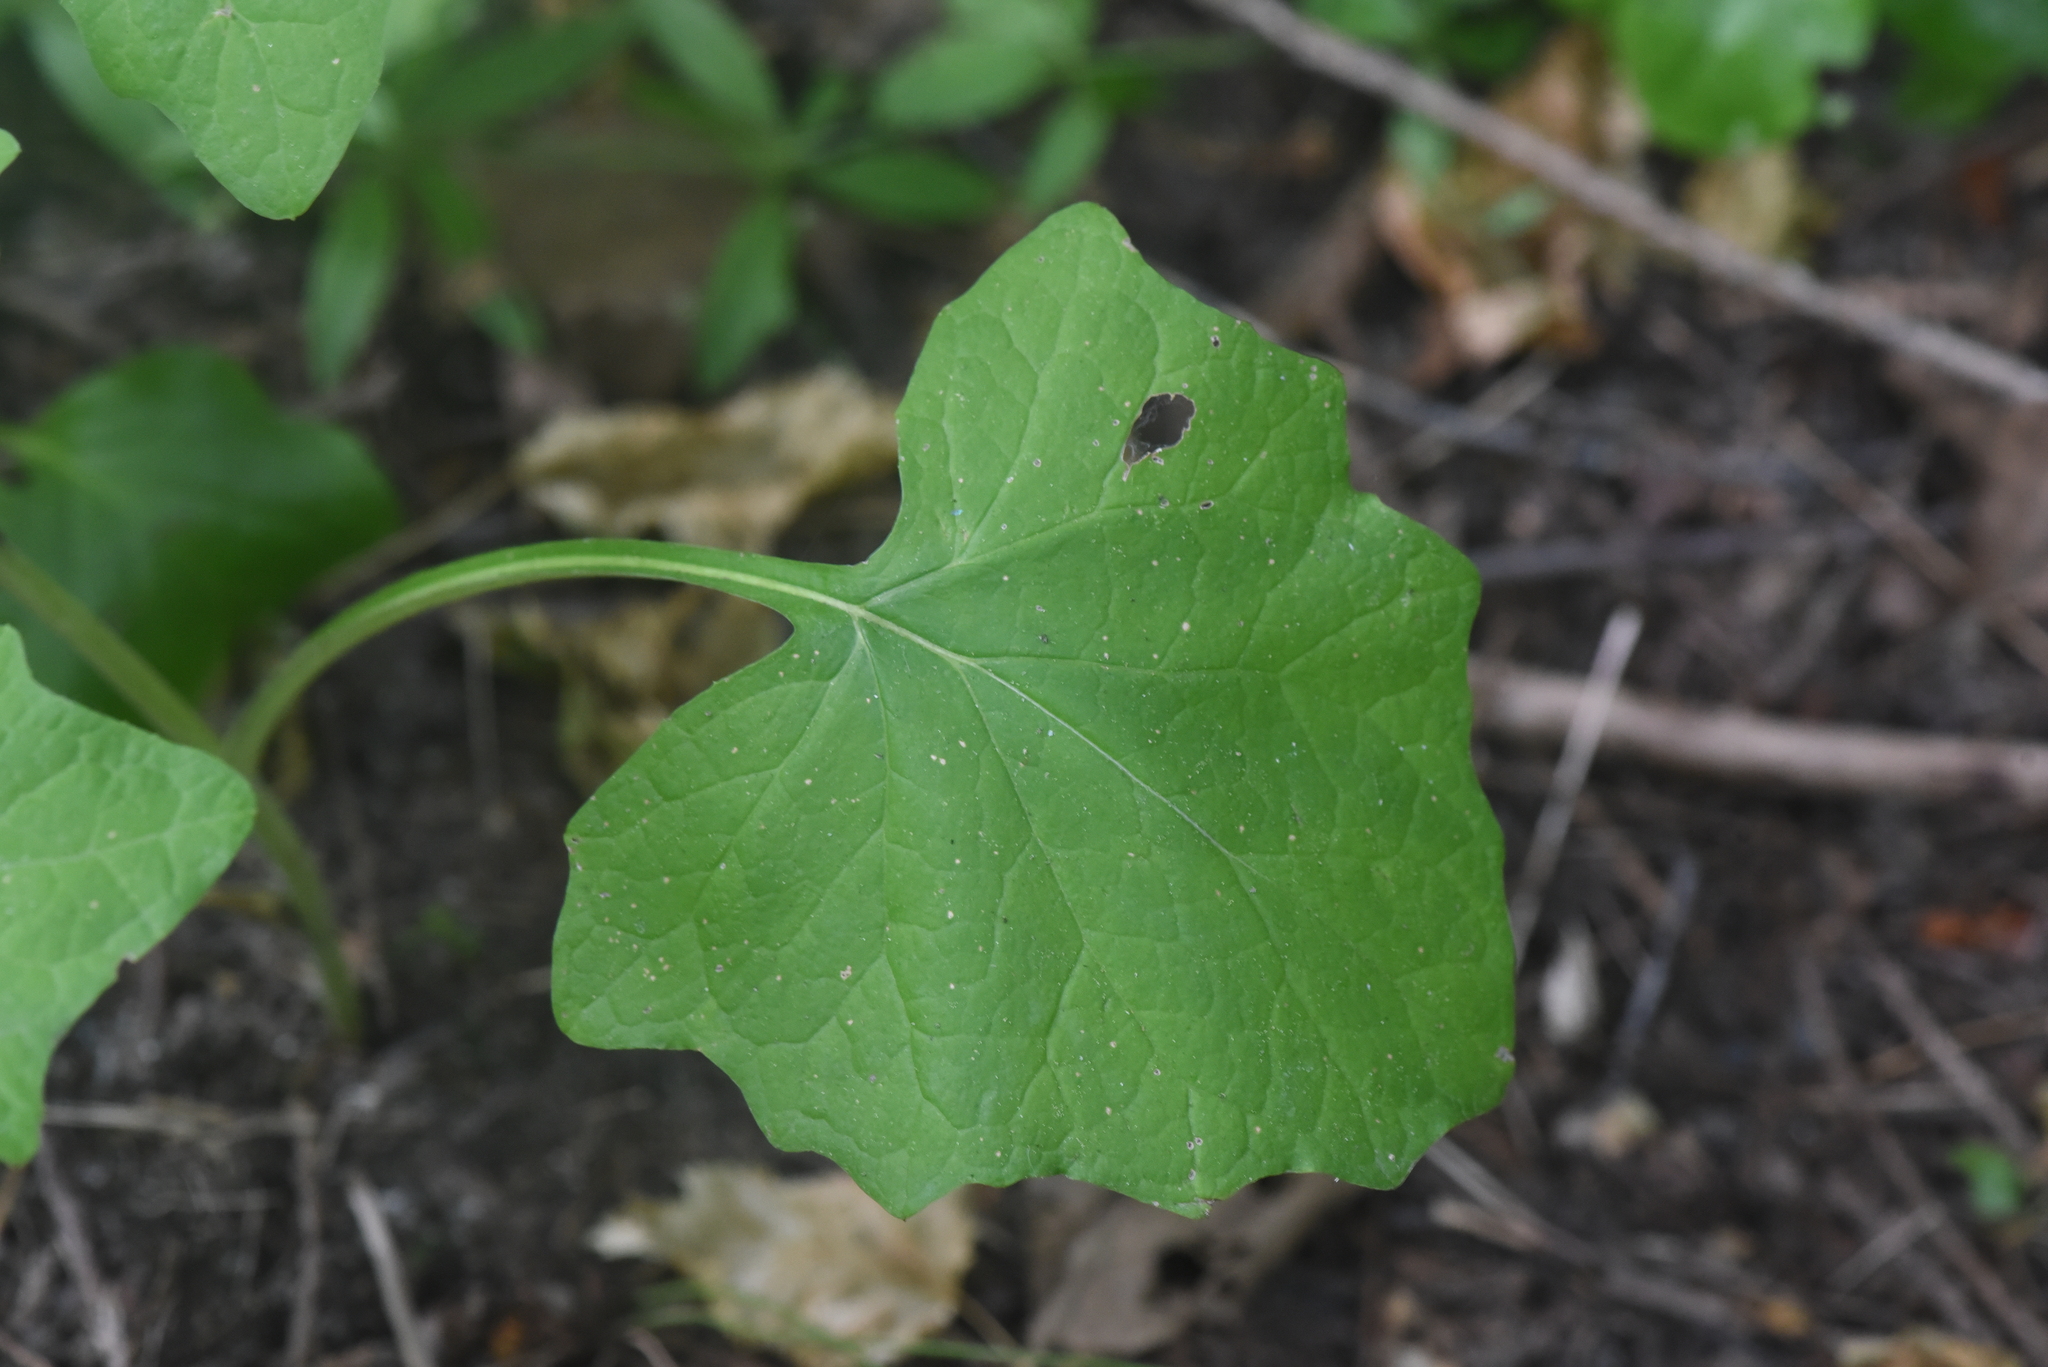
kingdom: Plantae
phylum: Tracheophyta
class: Magnoliopsida
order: Asterales
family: Asteraceae
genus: Adenocaulon
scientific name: Adenocaulon bicolor
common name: Trailplant
